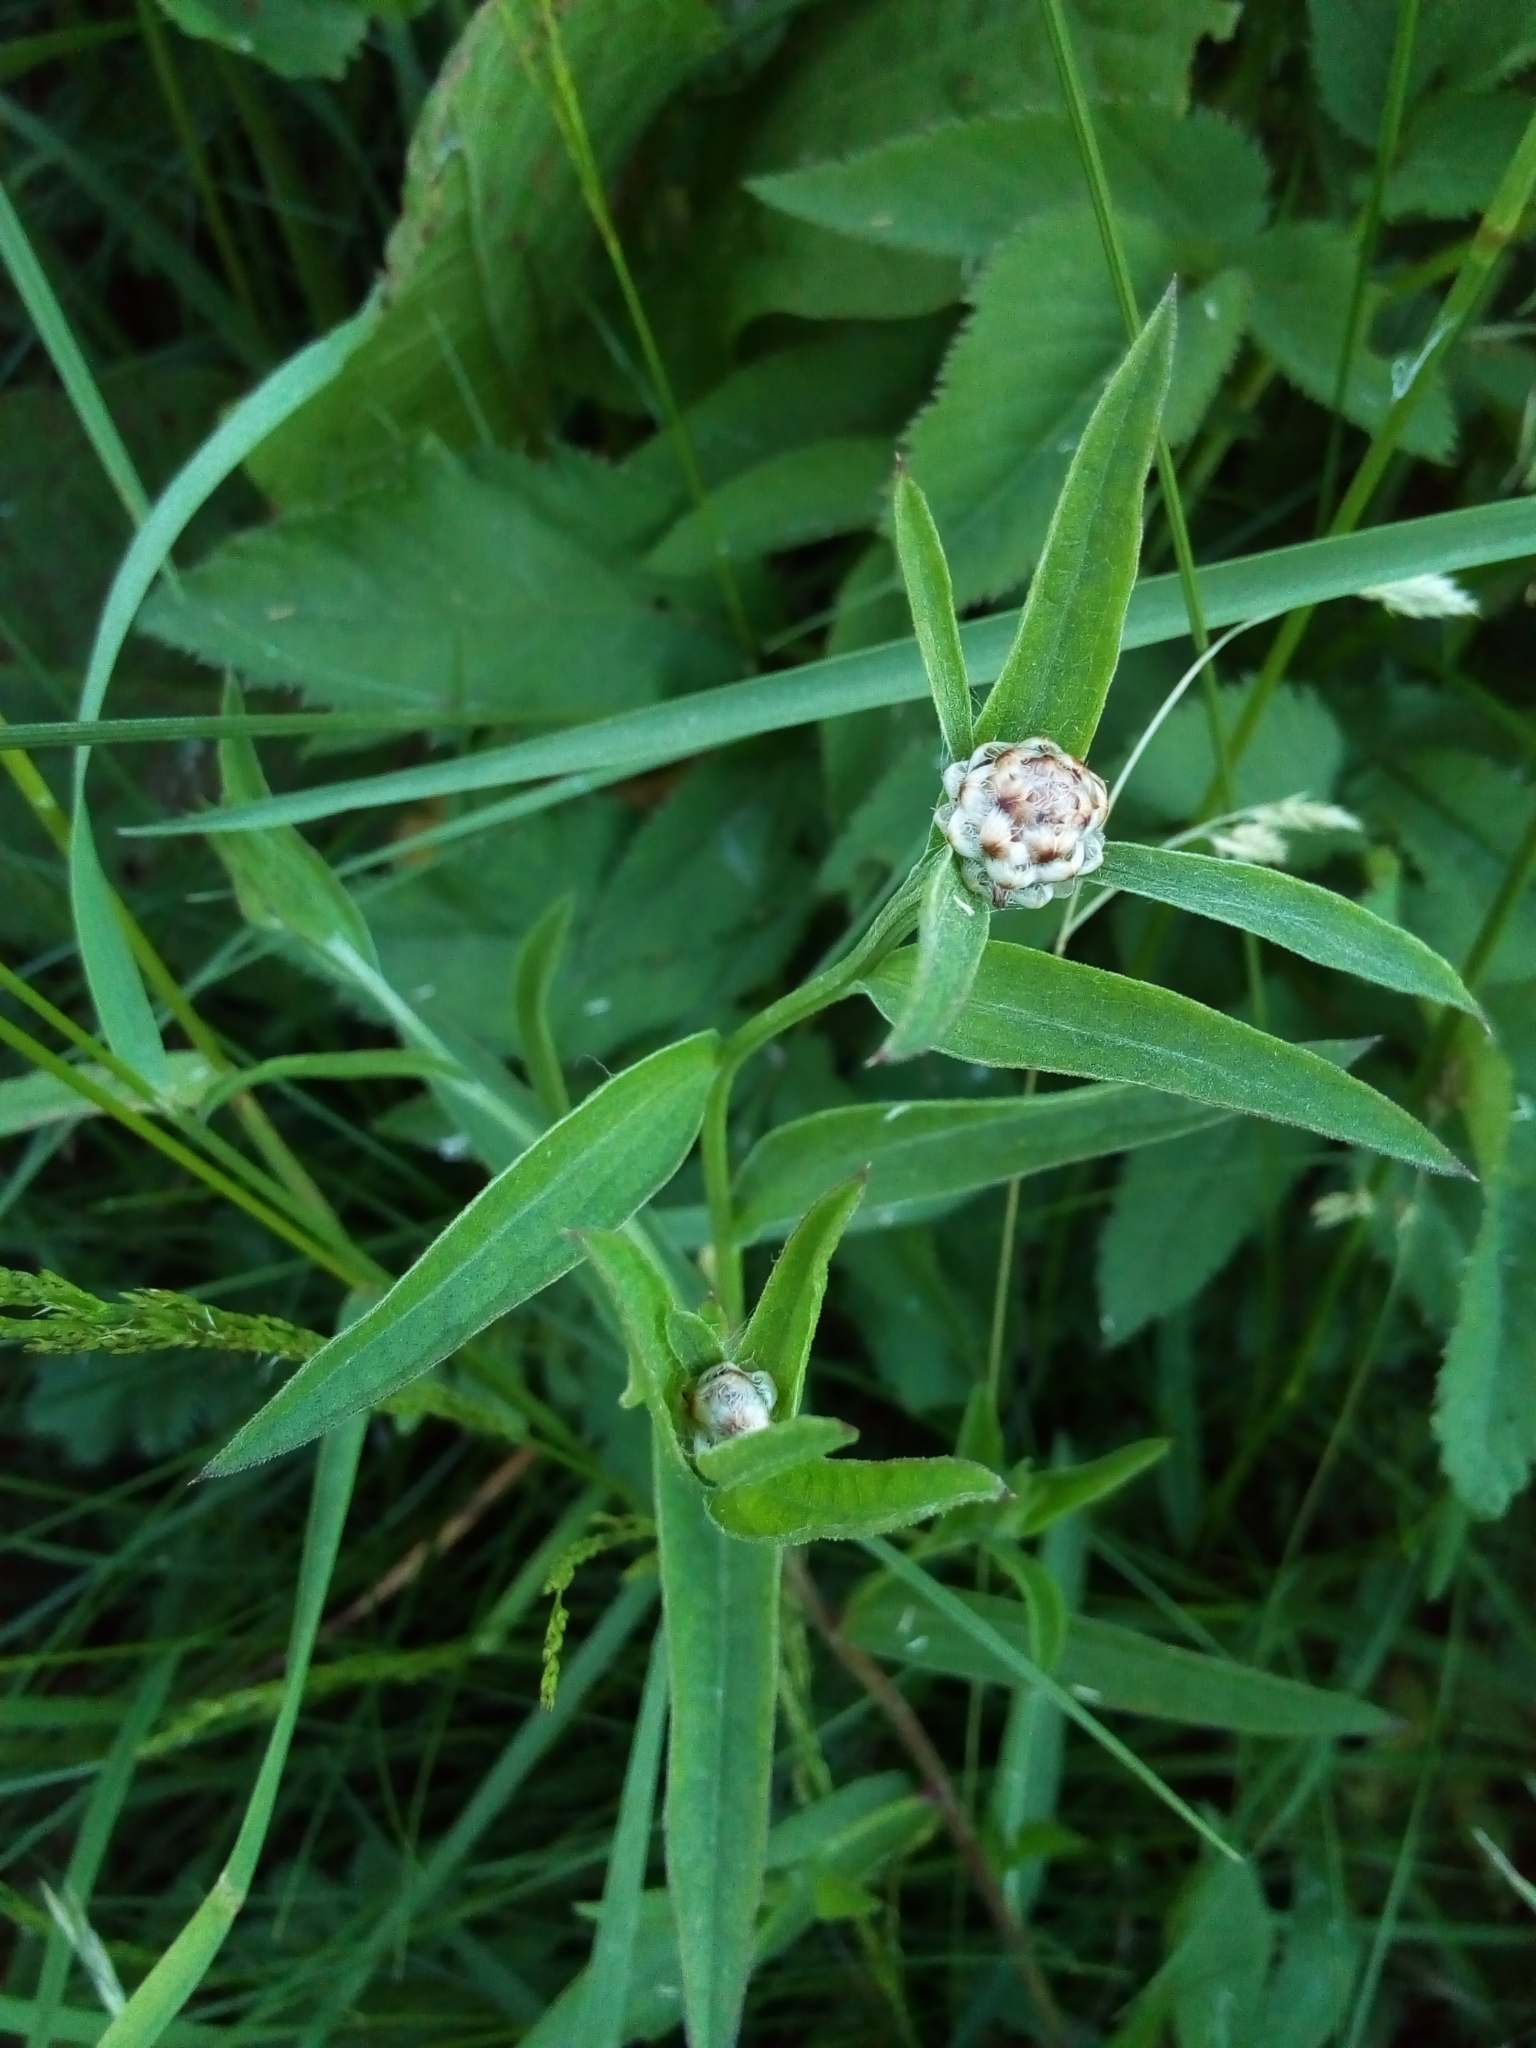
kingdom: Plantae
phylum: Tracheophyta
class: Magnoliopsida
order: Asterales
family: Asteraceae
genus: Centaurea
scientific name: Centaurea jacea
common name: Brown knapweed
